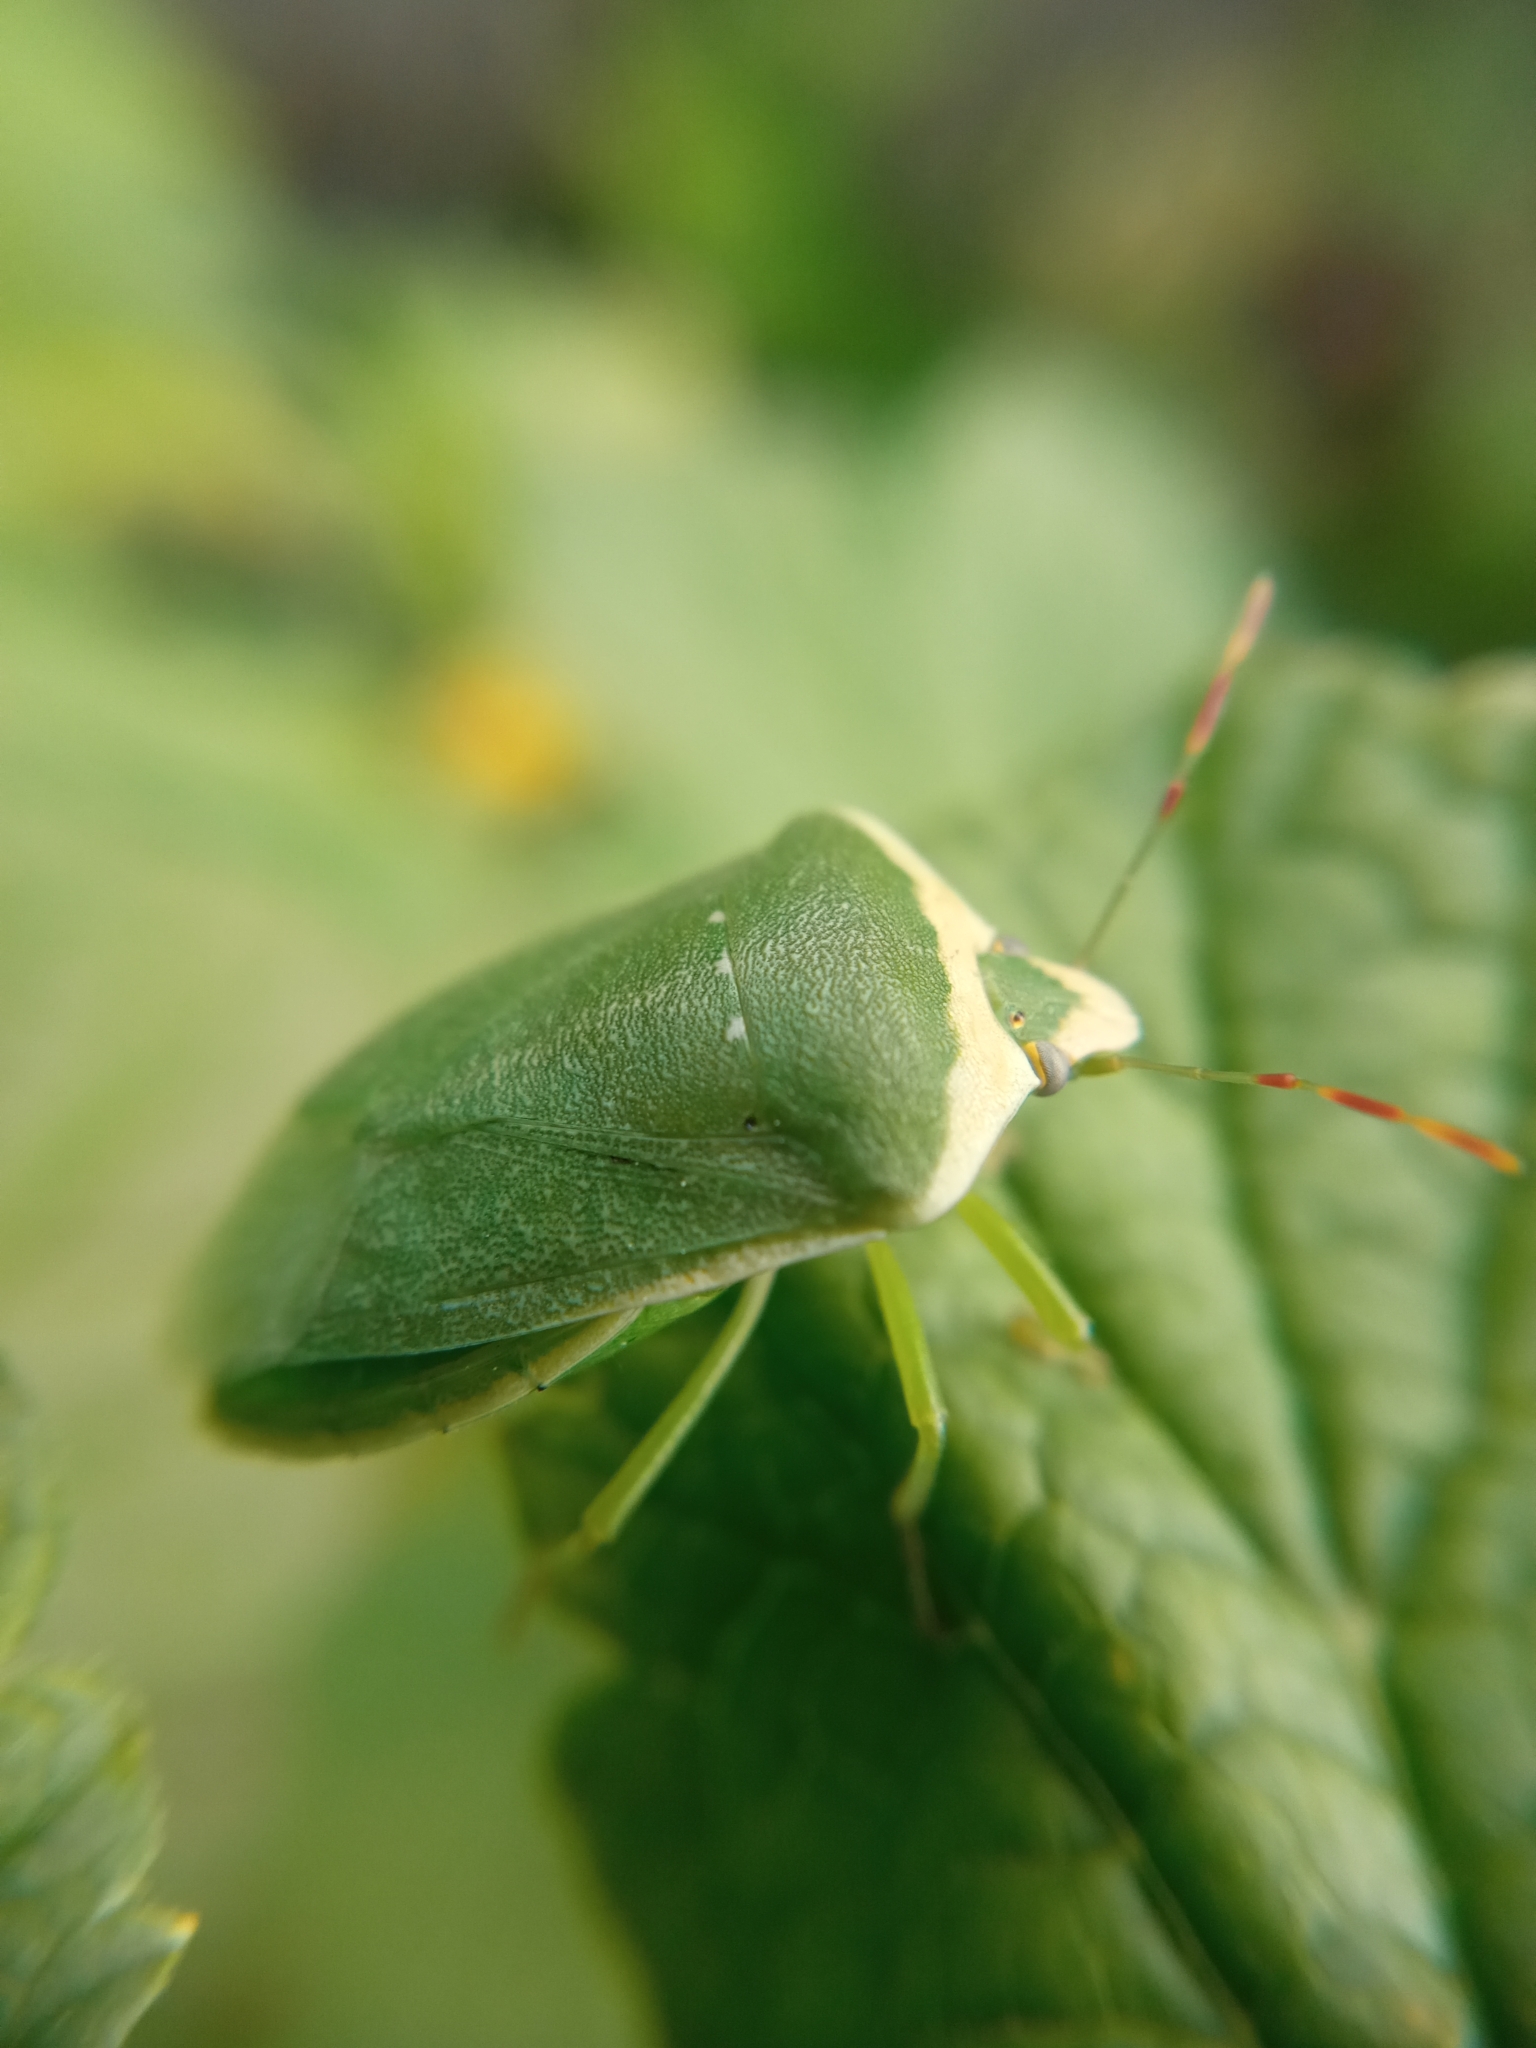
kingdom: Animalia
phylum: Arthropoda
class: Insecta
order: Hemiptera
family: Pentatomidae
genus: Nezara
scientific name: Nezara viridula
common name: Southern green stink bug
